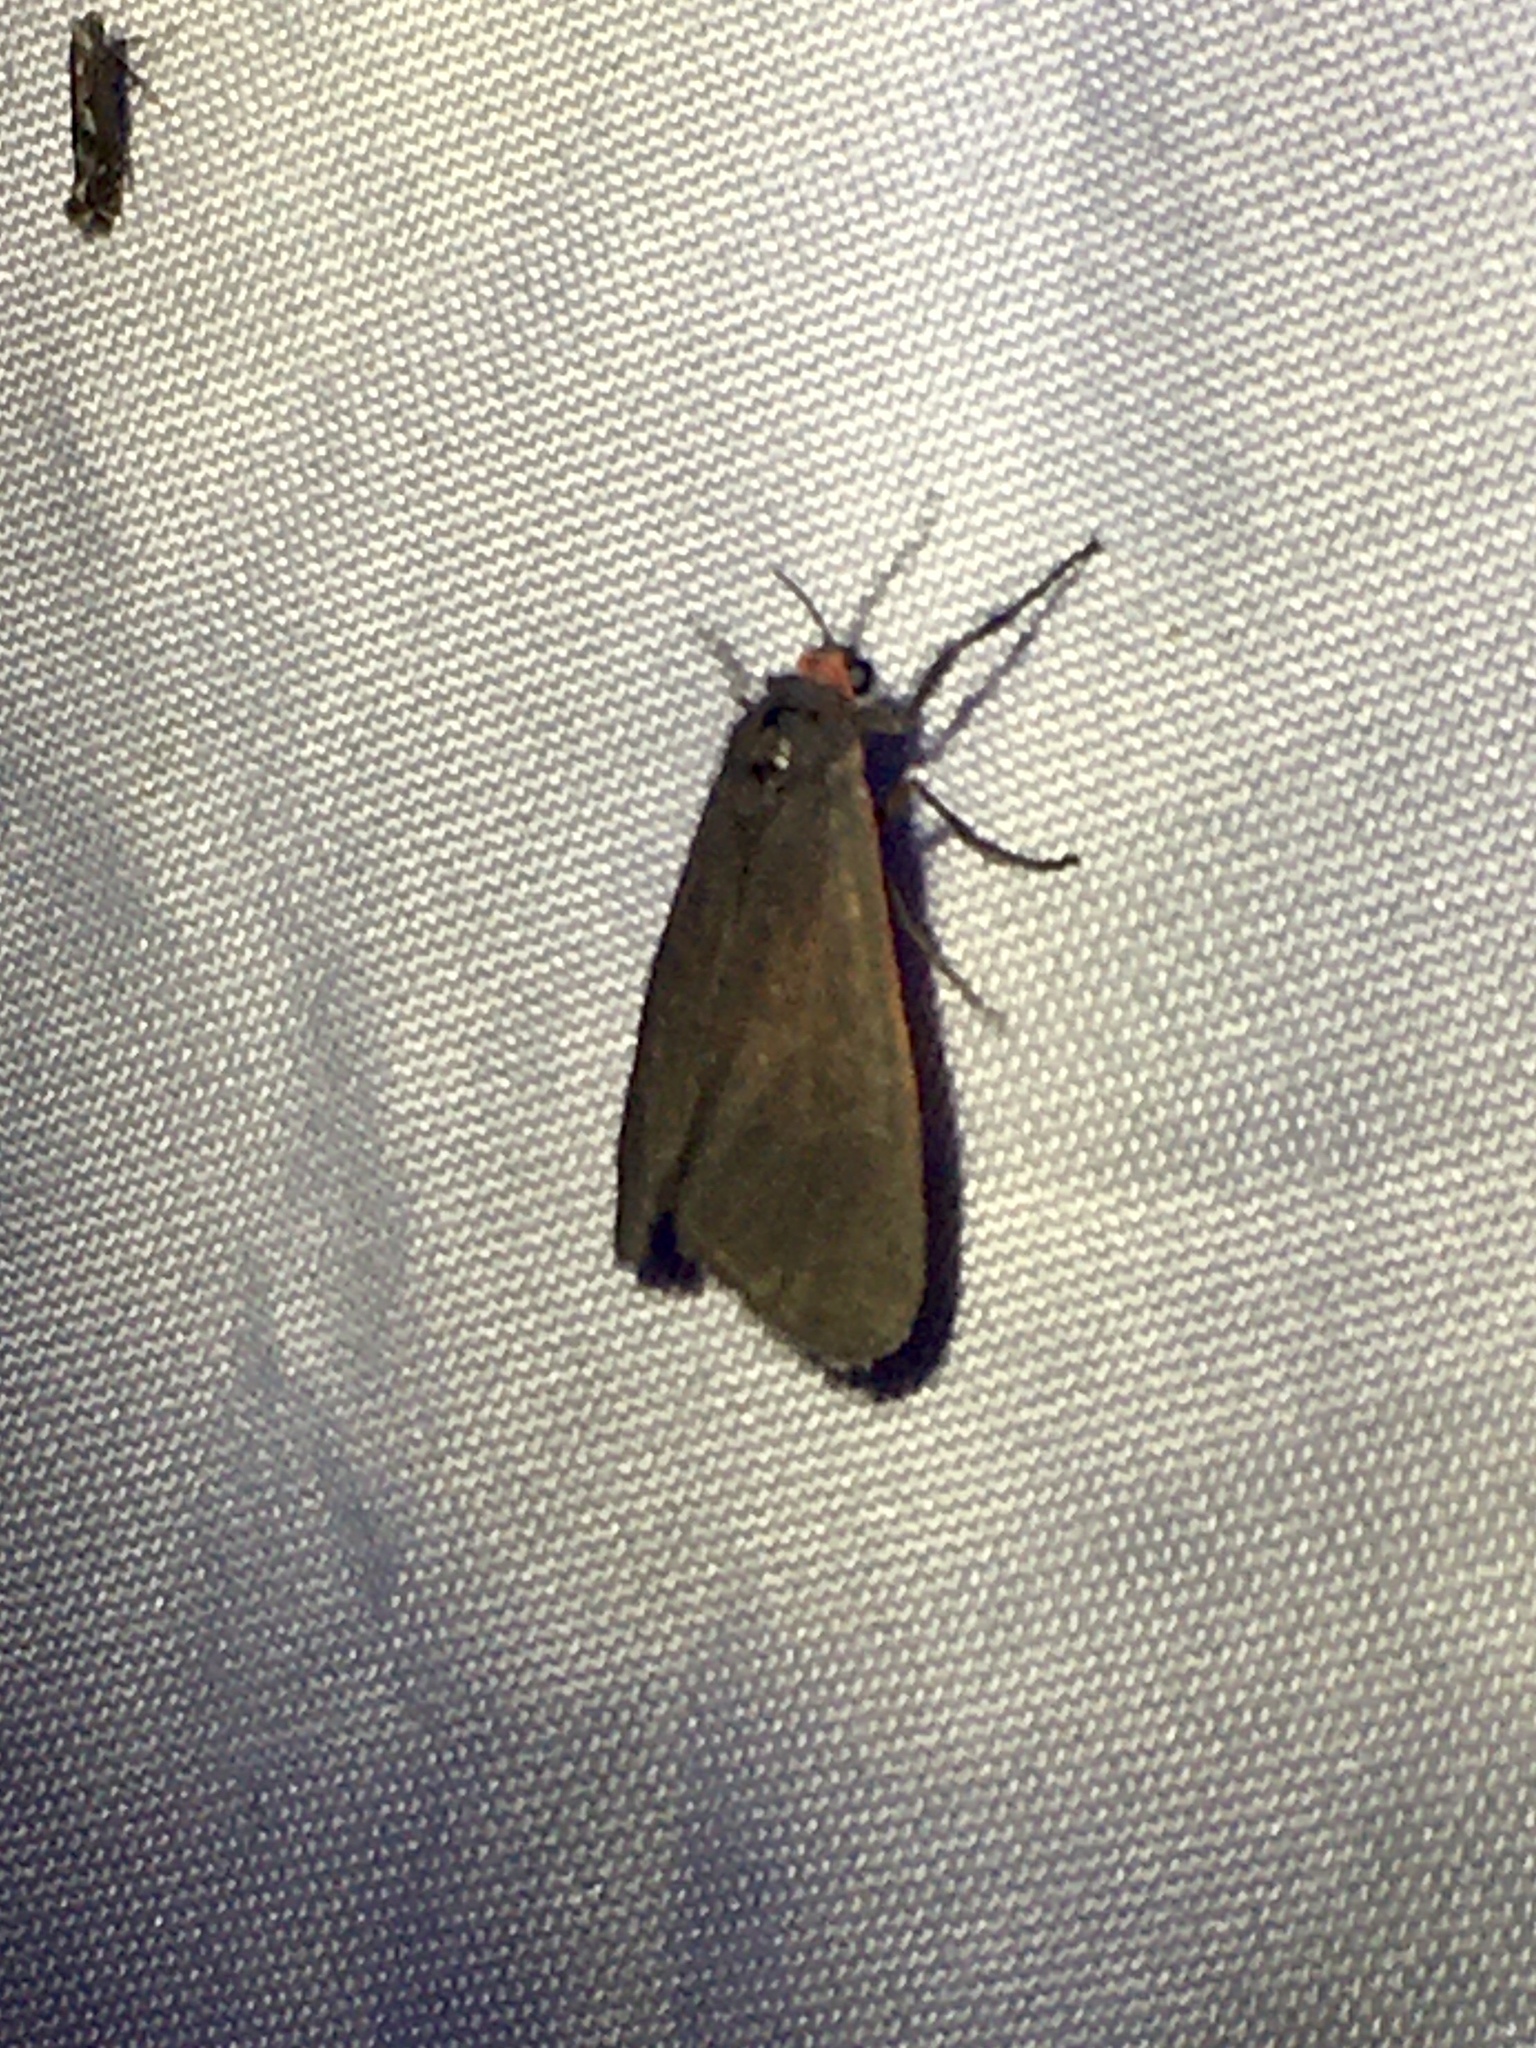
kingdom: Animalia
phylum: Arthropoda
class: Insecta
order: Lepidoptera
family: Erebidae
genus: Virbia
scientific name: Virbia laeta
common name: Joyful holomelina moth
